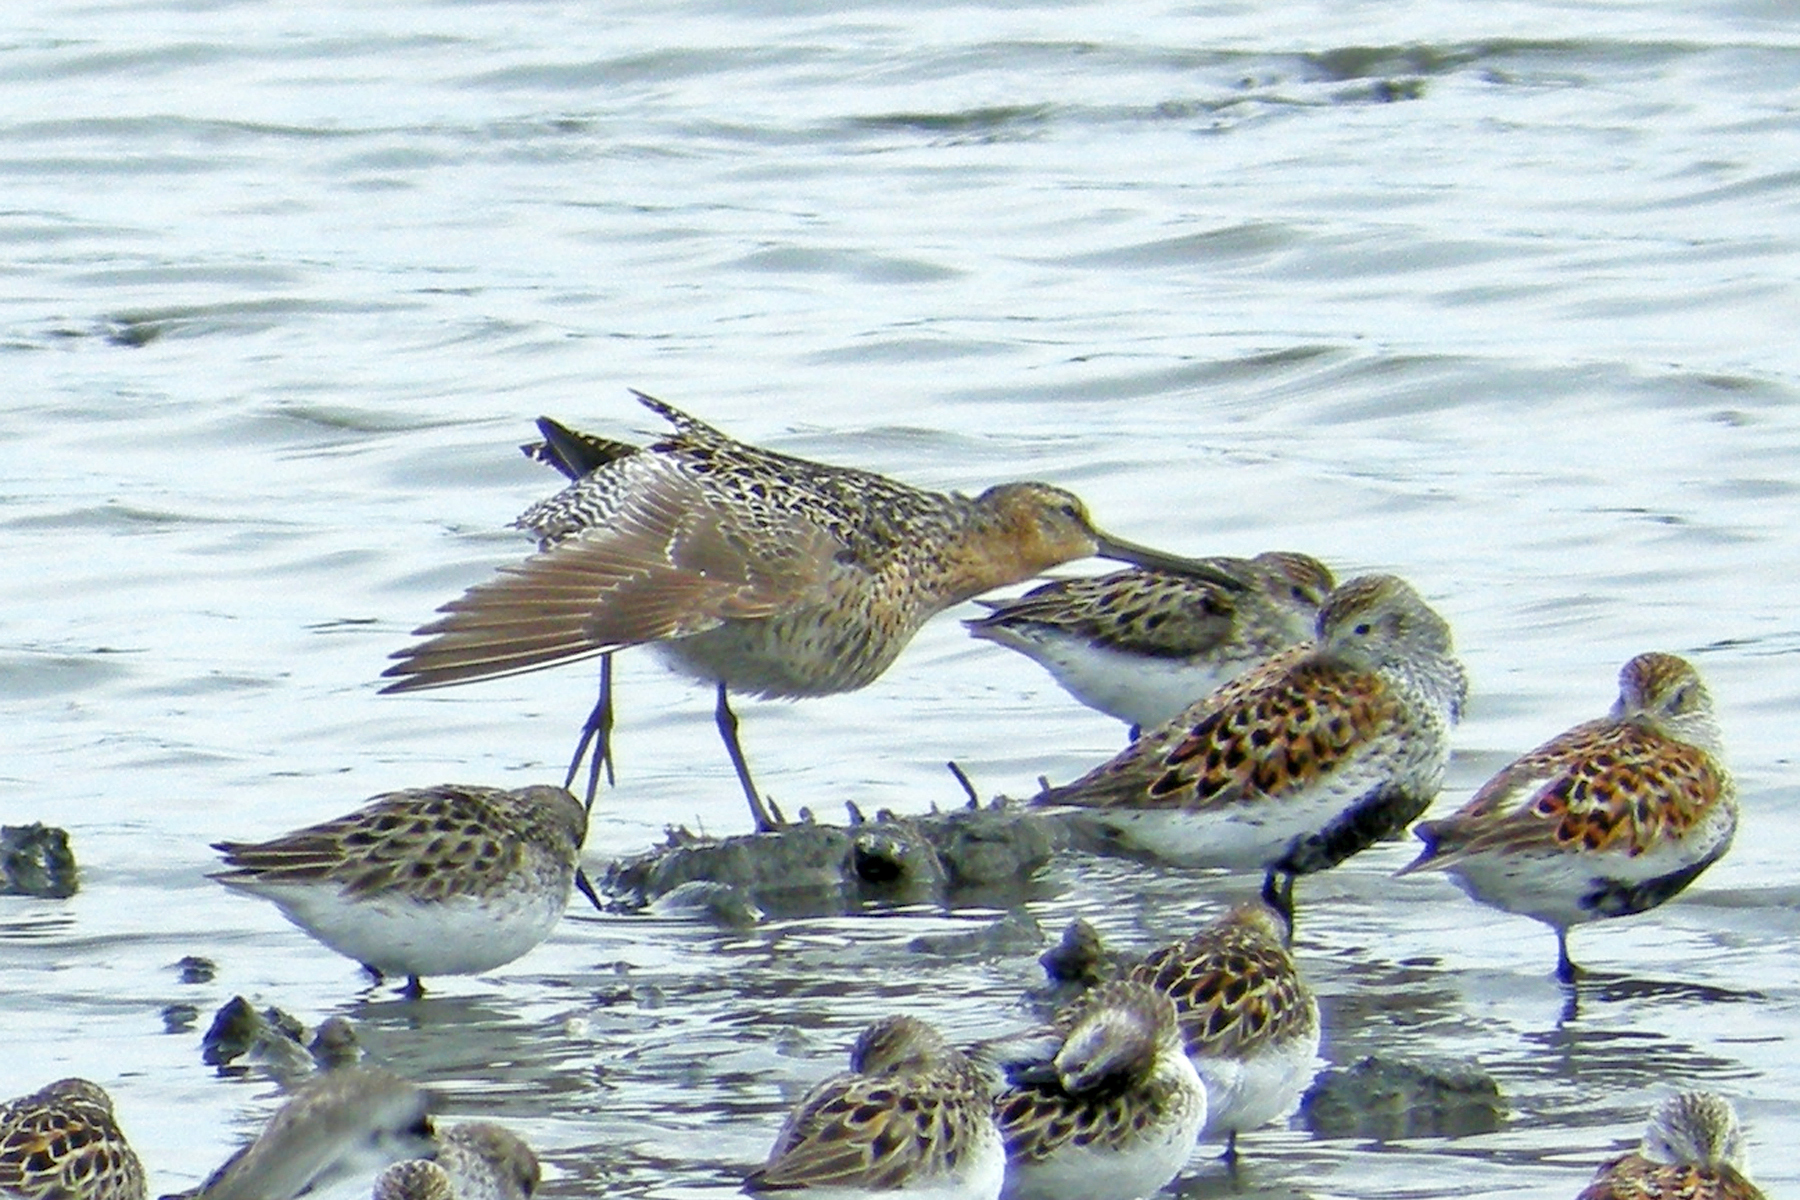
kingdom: Animalia
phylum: Chordata
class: Aves
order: Charadriiformes
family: Scolopacidae
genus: Limnodromus
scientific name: Limnodromus griseus
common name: Short-billed dowitcher
